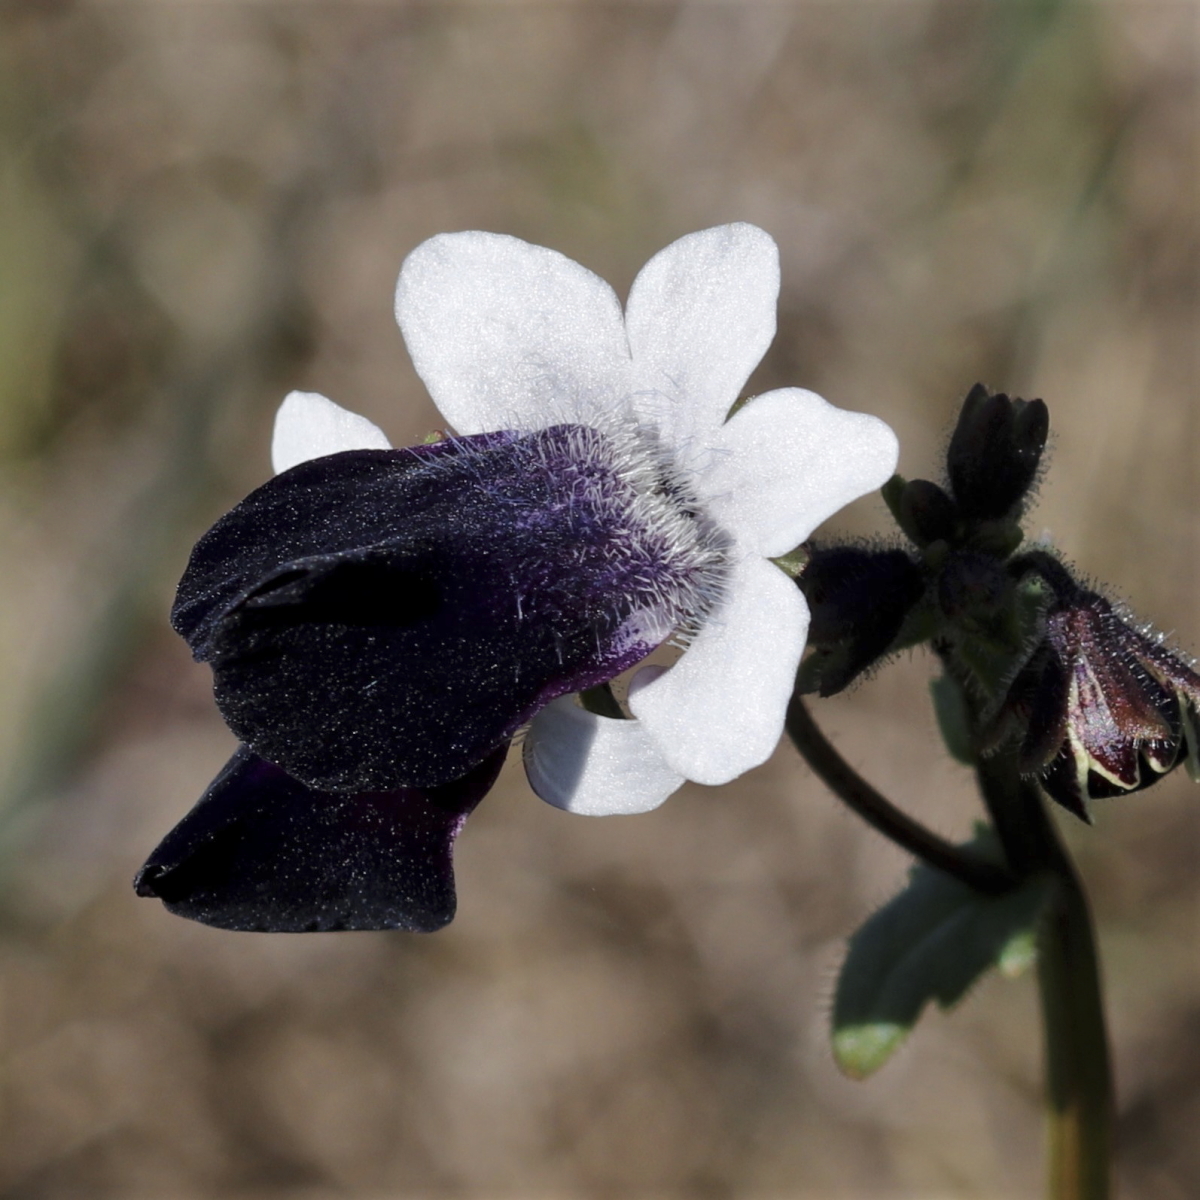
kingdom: Plantae
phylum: Tracheophyta
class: Magnoliopsida
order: Lamiales
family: Scrophulariaceae
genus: Nemesia
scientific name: Nemesia barbata
